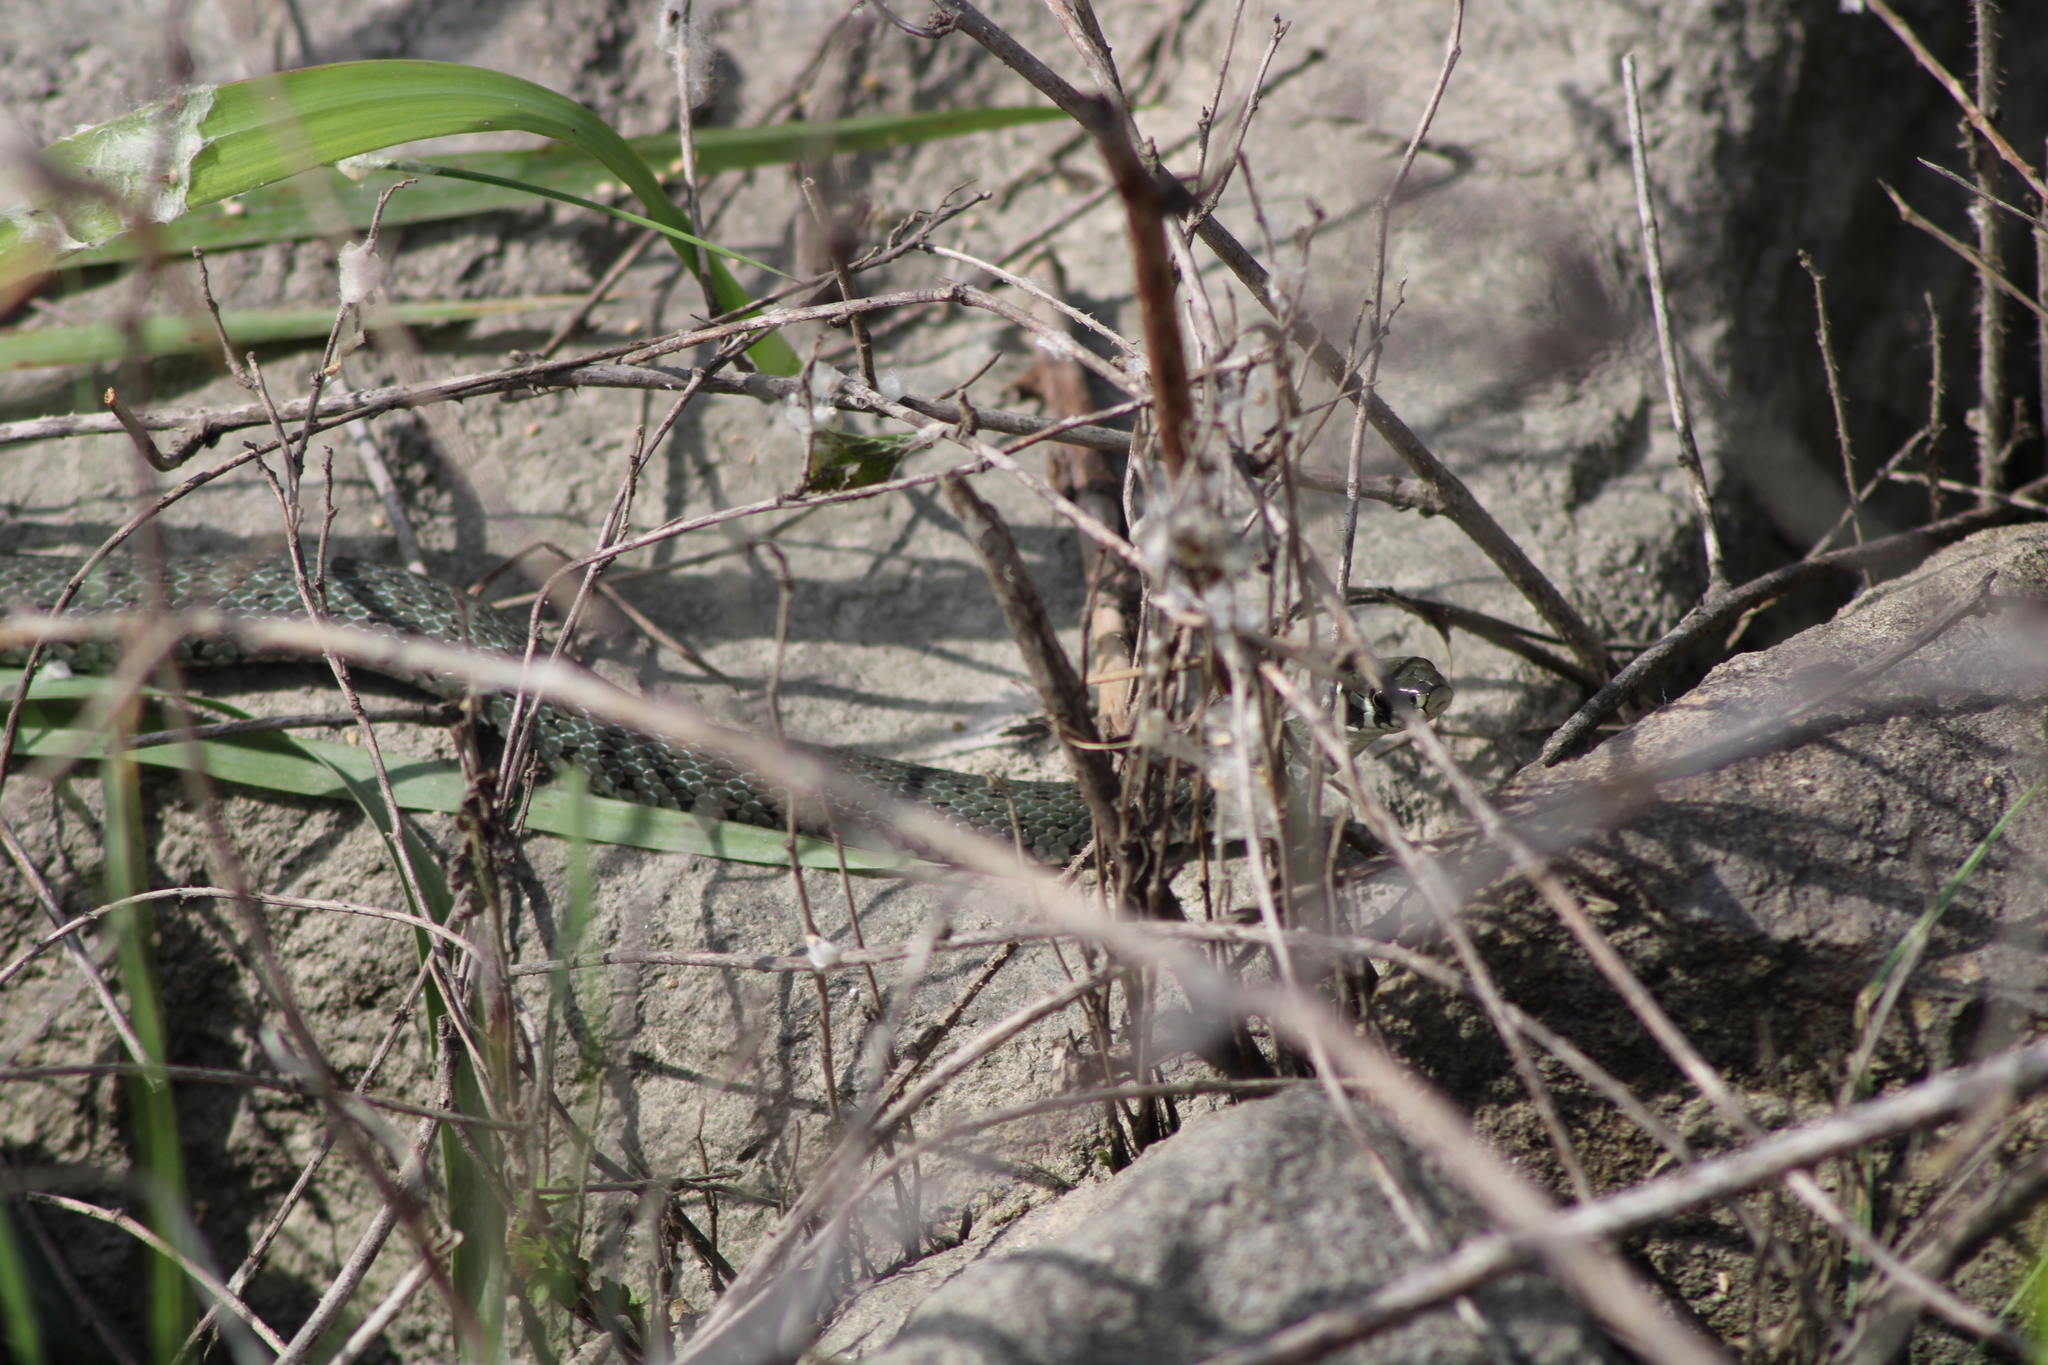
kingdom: Animalia
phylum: Chordata
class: Squamata
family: Colubridae
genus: Natrix
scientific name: Natrix natrix
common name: Grass snake
